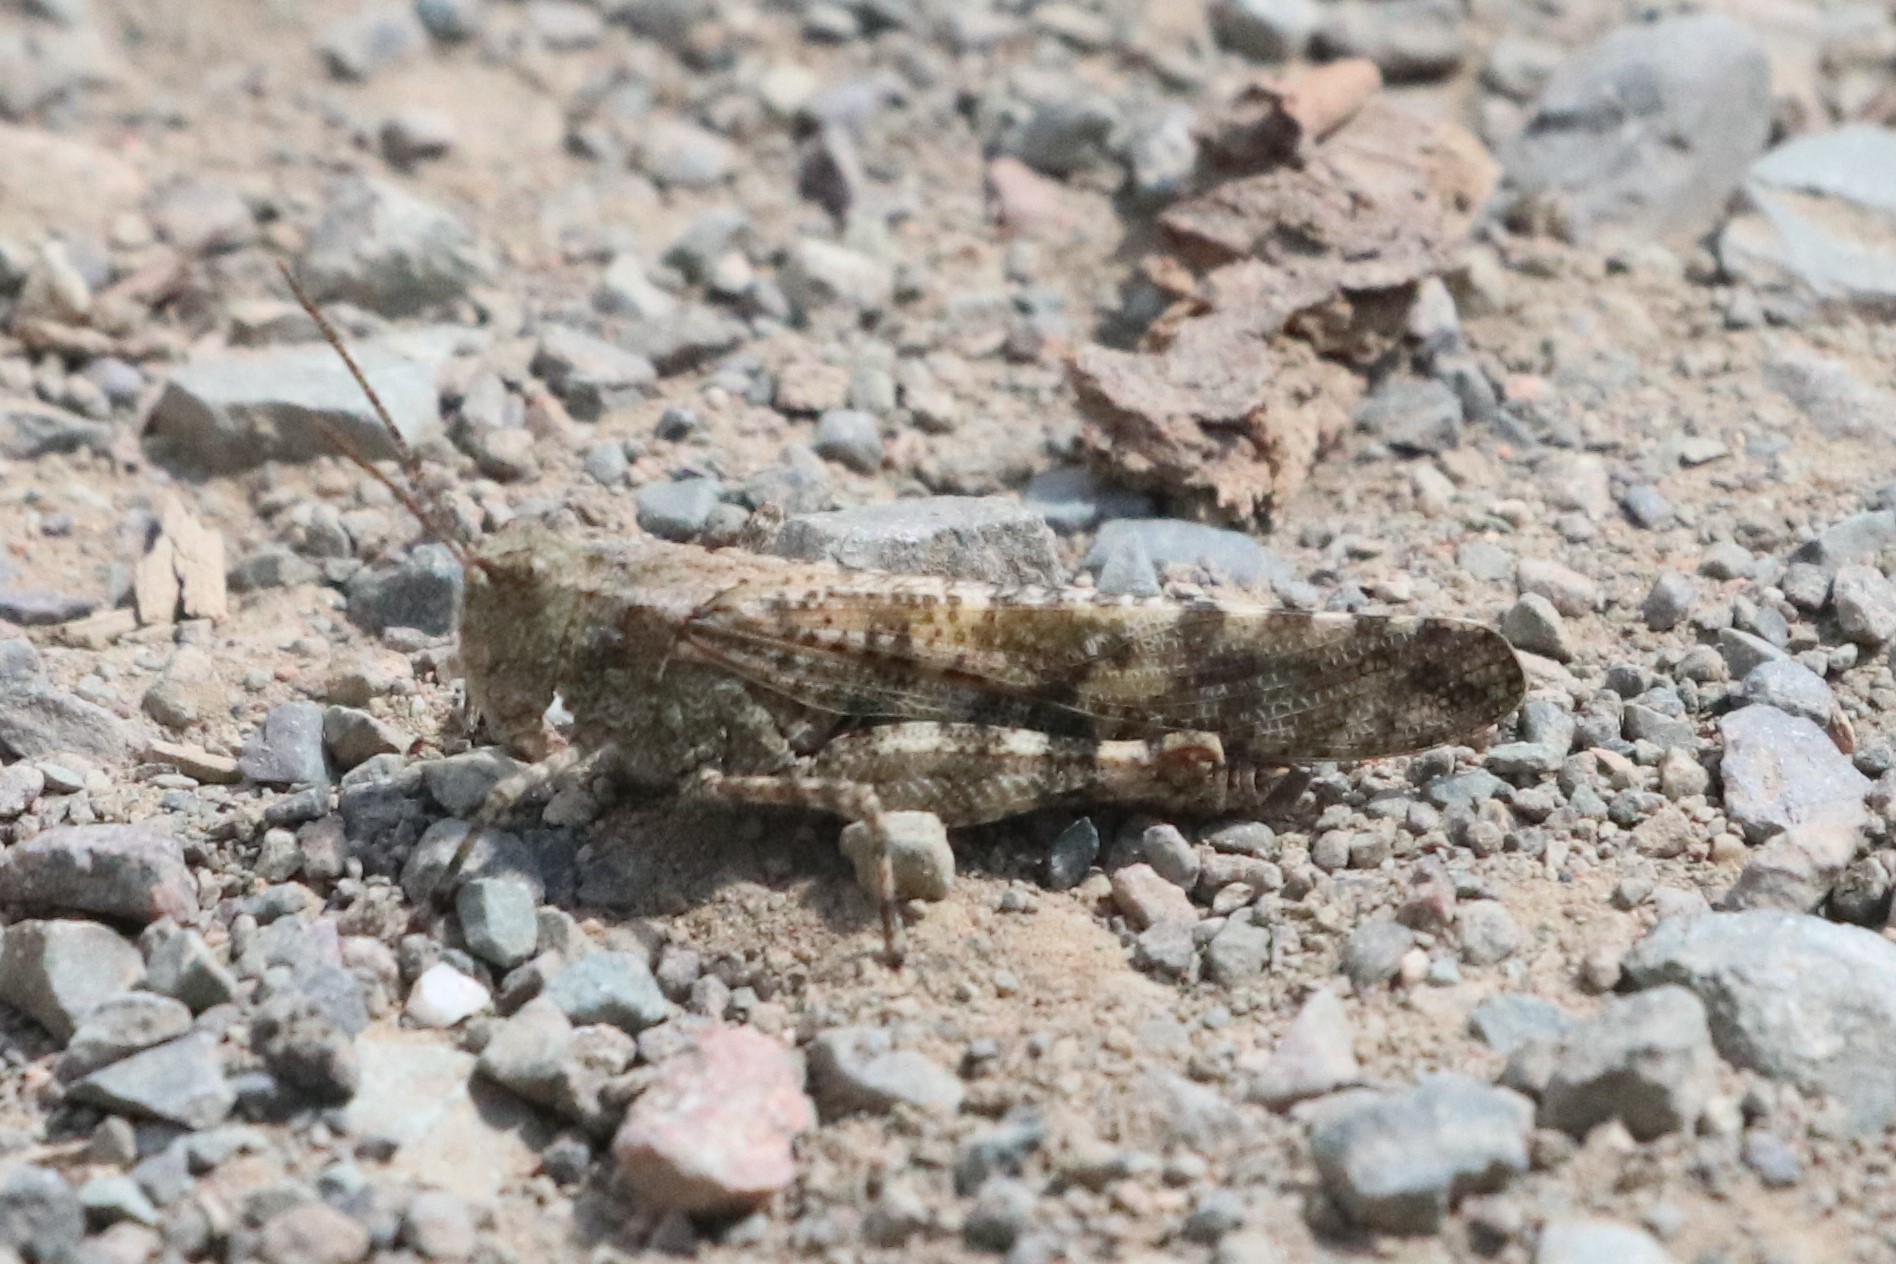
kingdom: Animalia
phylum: Arthropoda
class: Insecta
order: Orthoptera
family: Acrididae
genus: Trimerotropis
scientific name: Trimerotropis verruculata
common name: Crackling forest grasshopper
